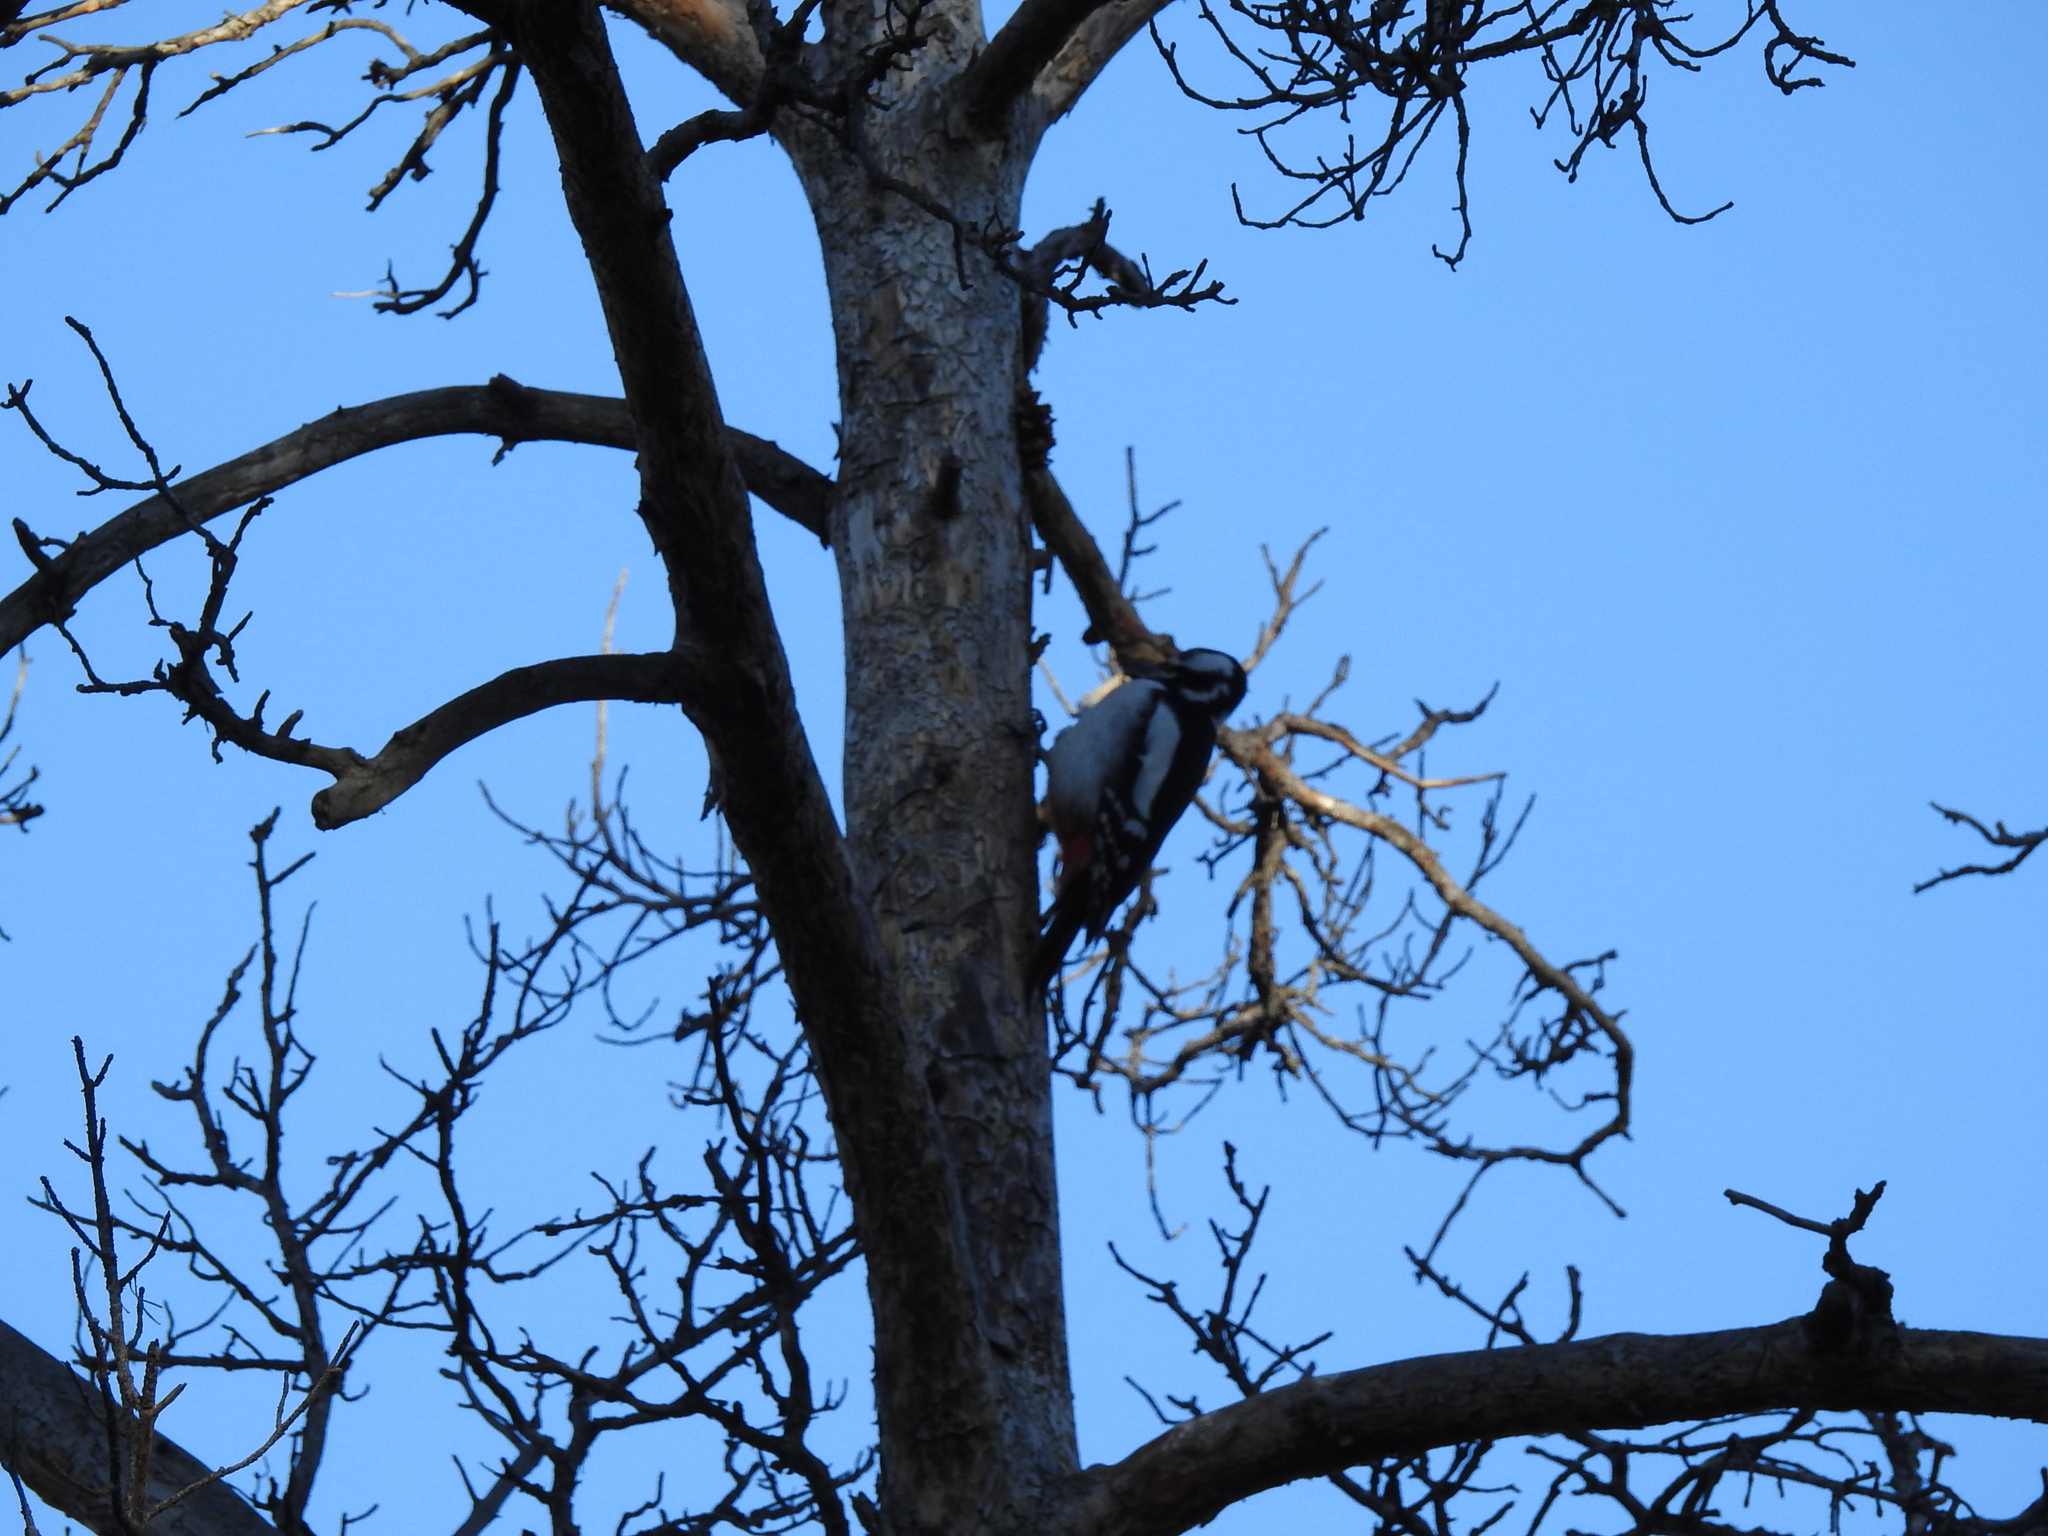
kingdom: Animalia
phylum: Chordata
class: Aves
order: Piciformes
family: Picidae
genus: Dendrocopos
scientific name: Dendrocopos major
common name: Great spotted woodpecker
